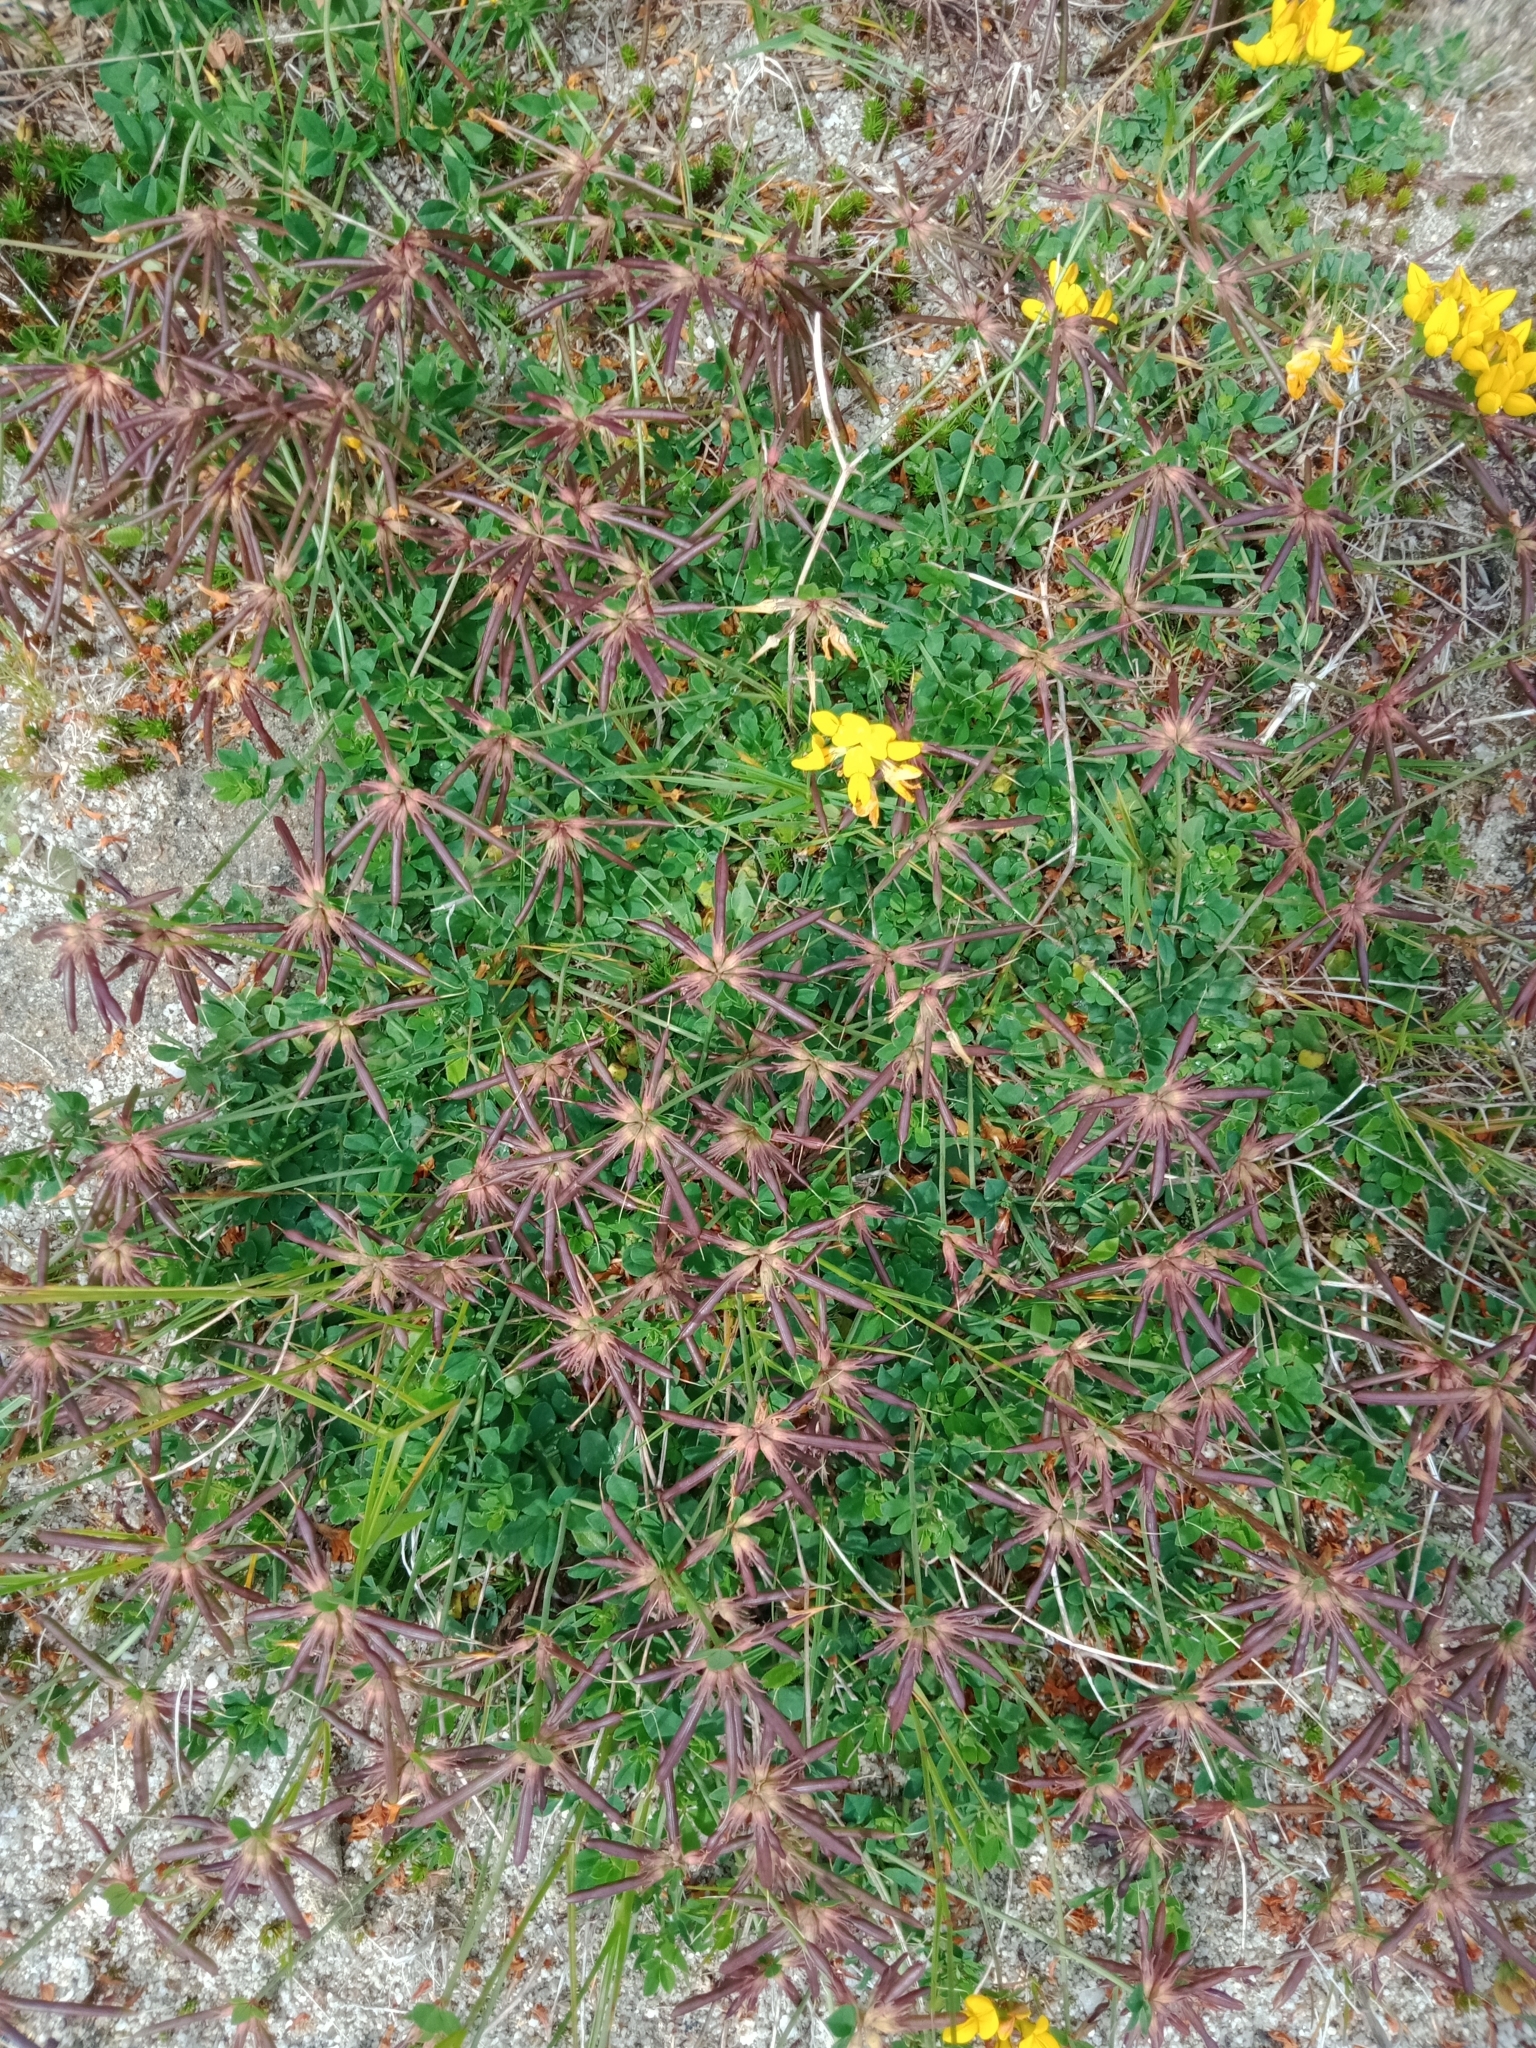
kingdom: Plantae
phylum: Tracheophyta
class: Magnoliopsida
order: Fabales
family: Fabaceae
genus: Lotus
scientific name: Lotus pedunculatus
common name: Greater birdsfoot-trefoil
